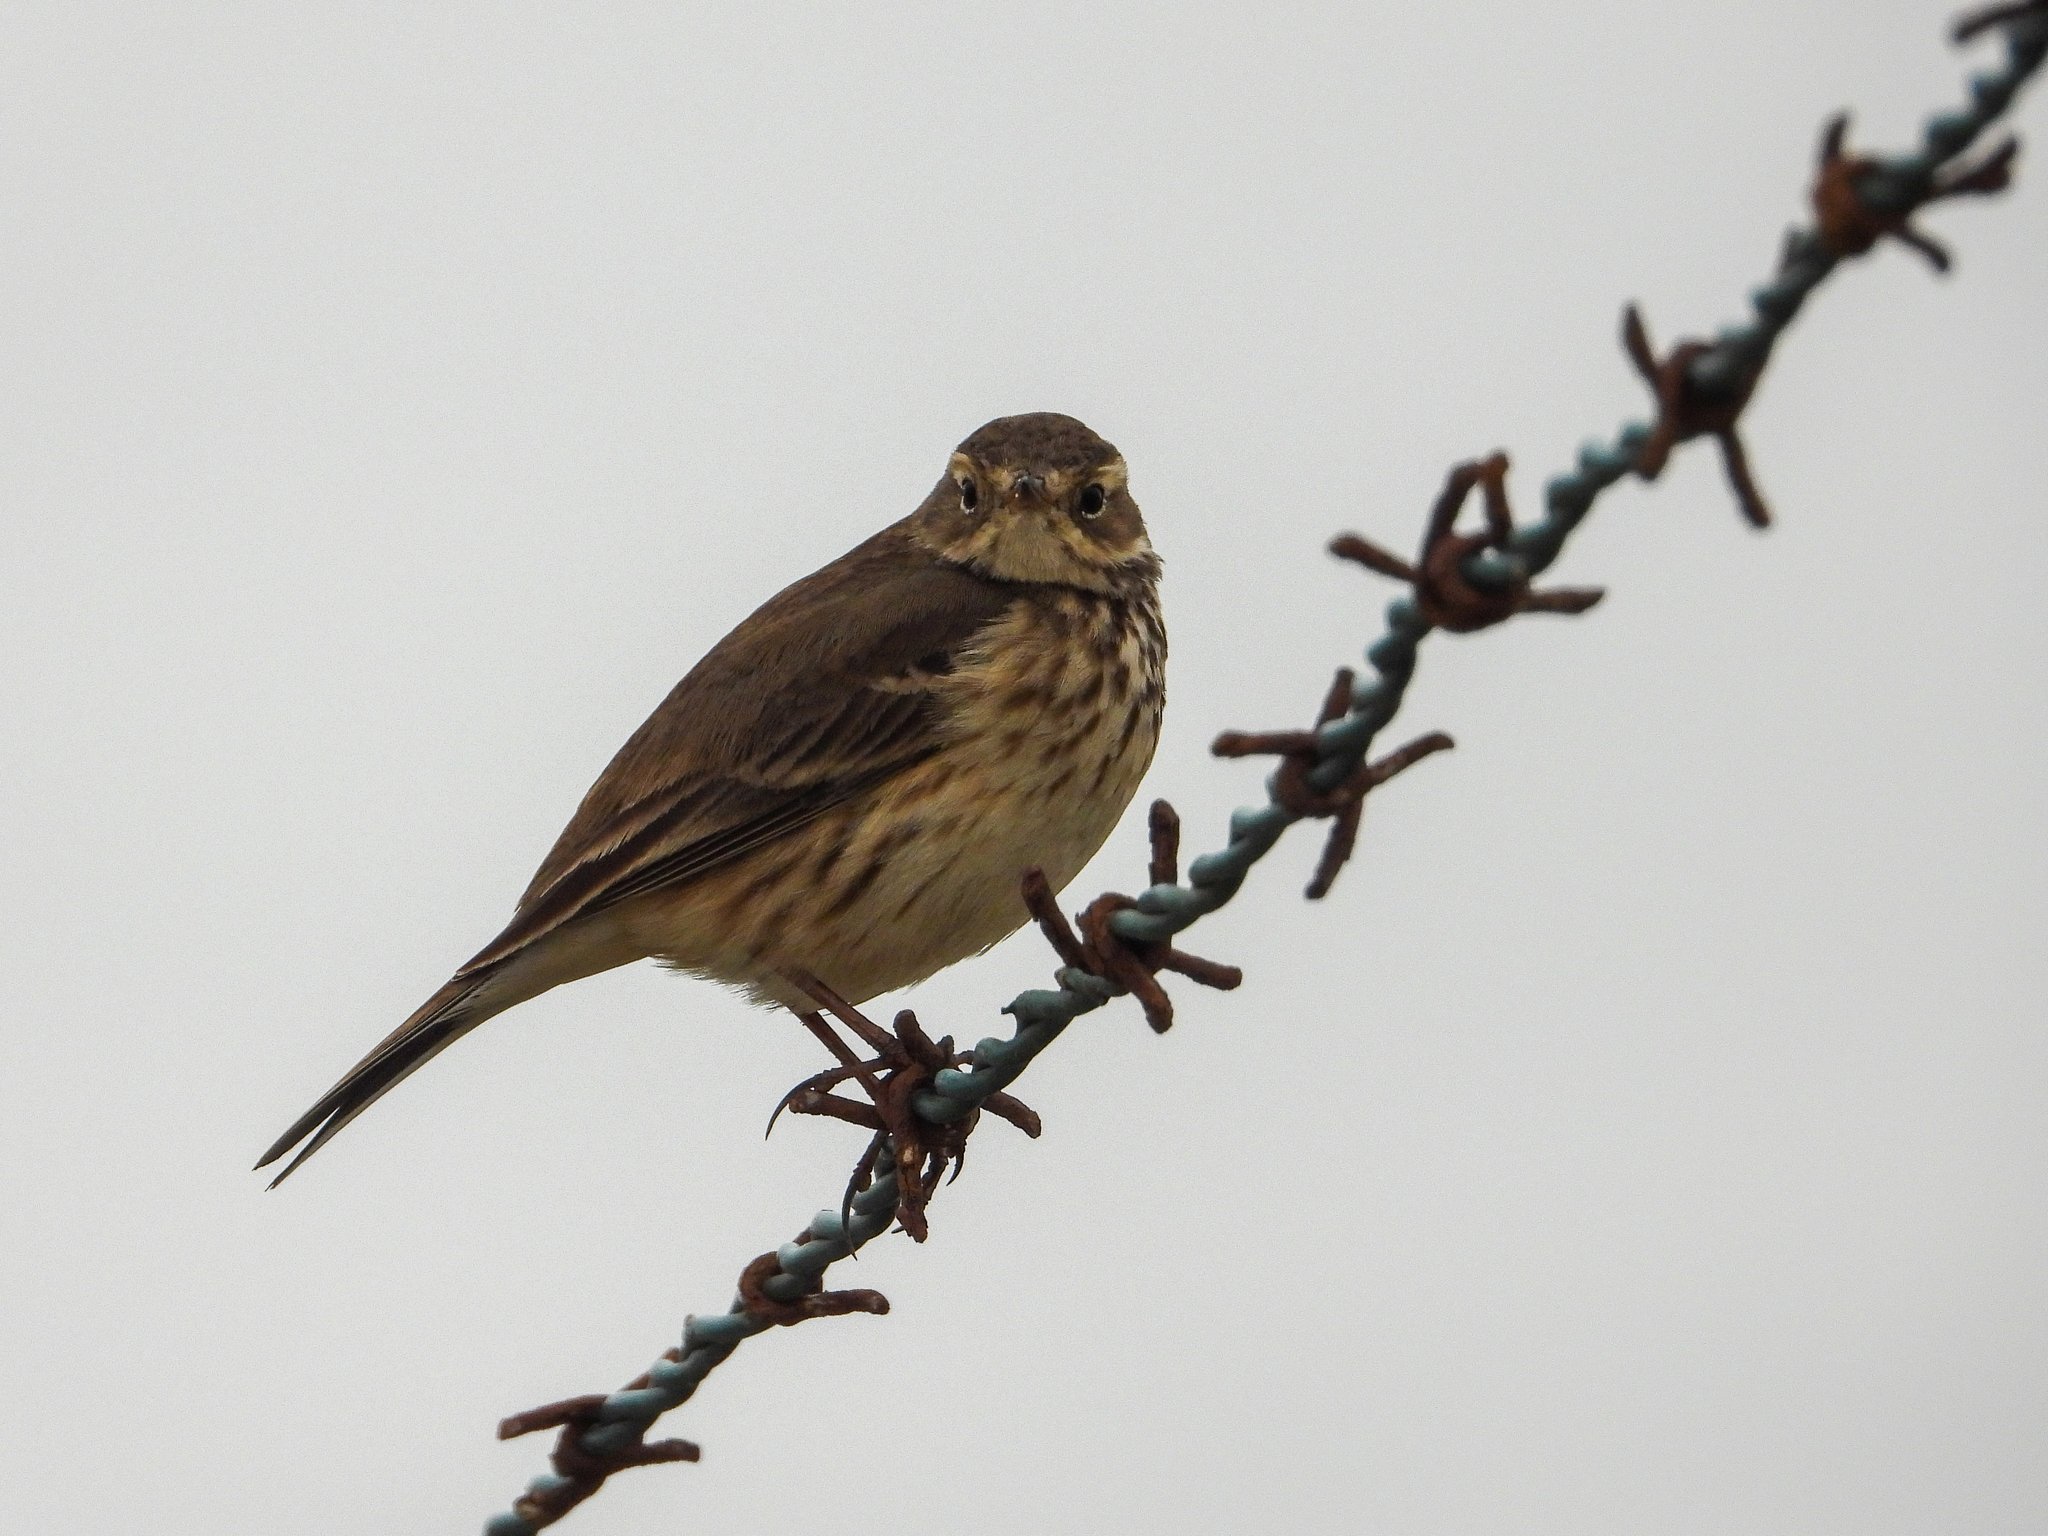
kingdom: Animalia
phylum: Chordata
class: Aves
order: Passeriformes
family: Motacillidae
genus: Anthus
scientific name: Anthus rubescens
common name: Buff-bellied pipit
